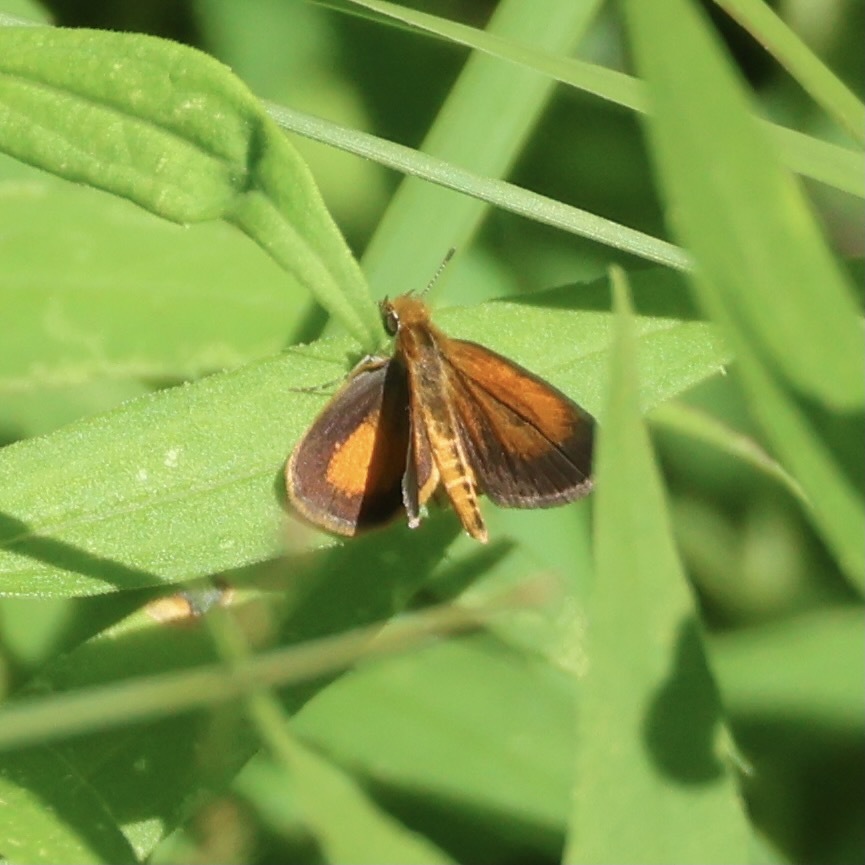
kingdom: Animalia
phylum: Arthropoda
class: Insecta
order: Lepidoptera
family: Hesperiidae
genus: Ancyloxypha
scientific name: Ancyloxypha numitor
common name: Least skipper
